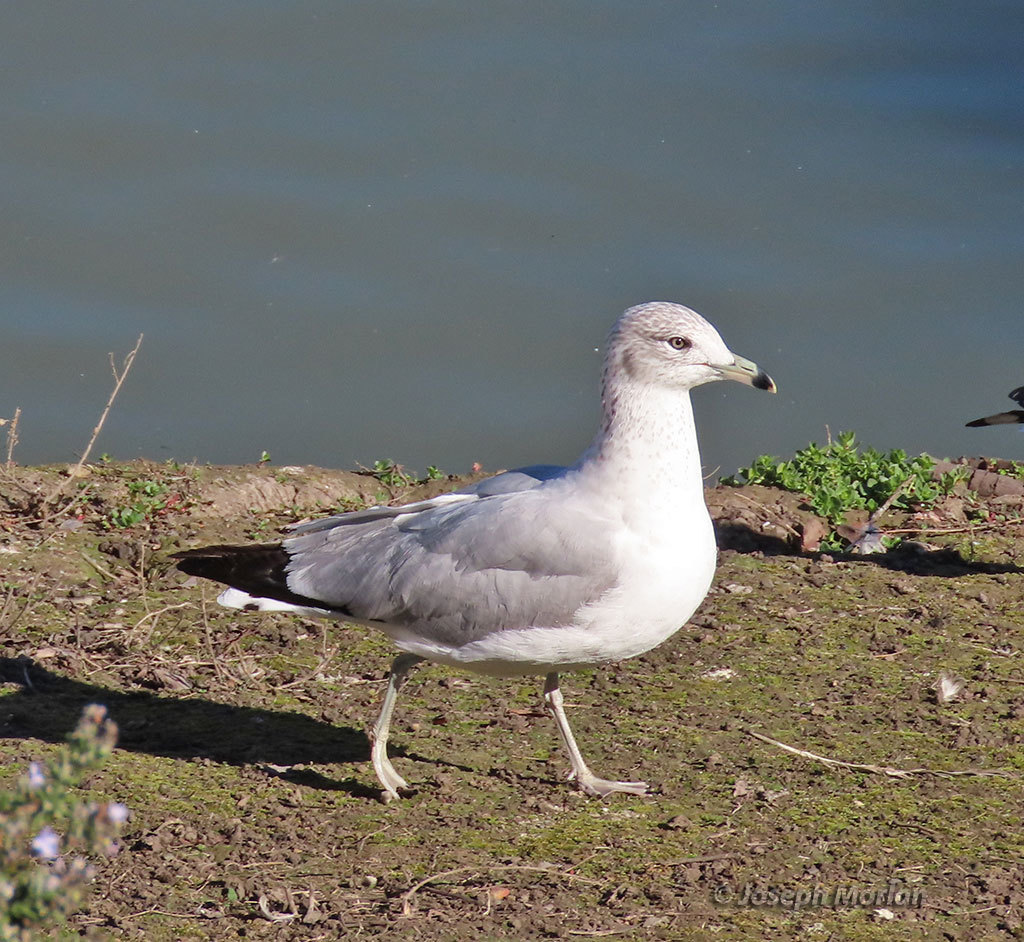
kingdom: Animalia
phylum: Chordata
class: Aves
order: Charadriiformes
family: Laridae
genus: Larus
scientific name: Larus delawarensis
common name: Ring-billed gull
